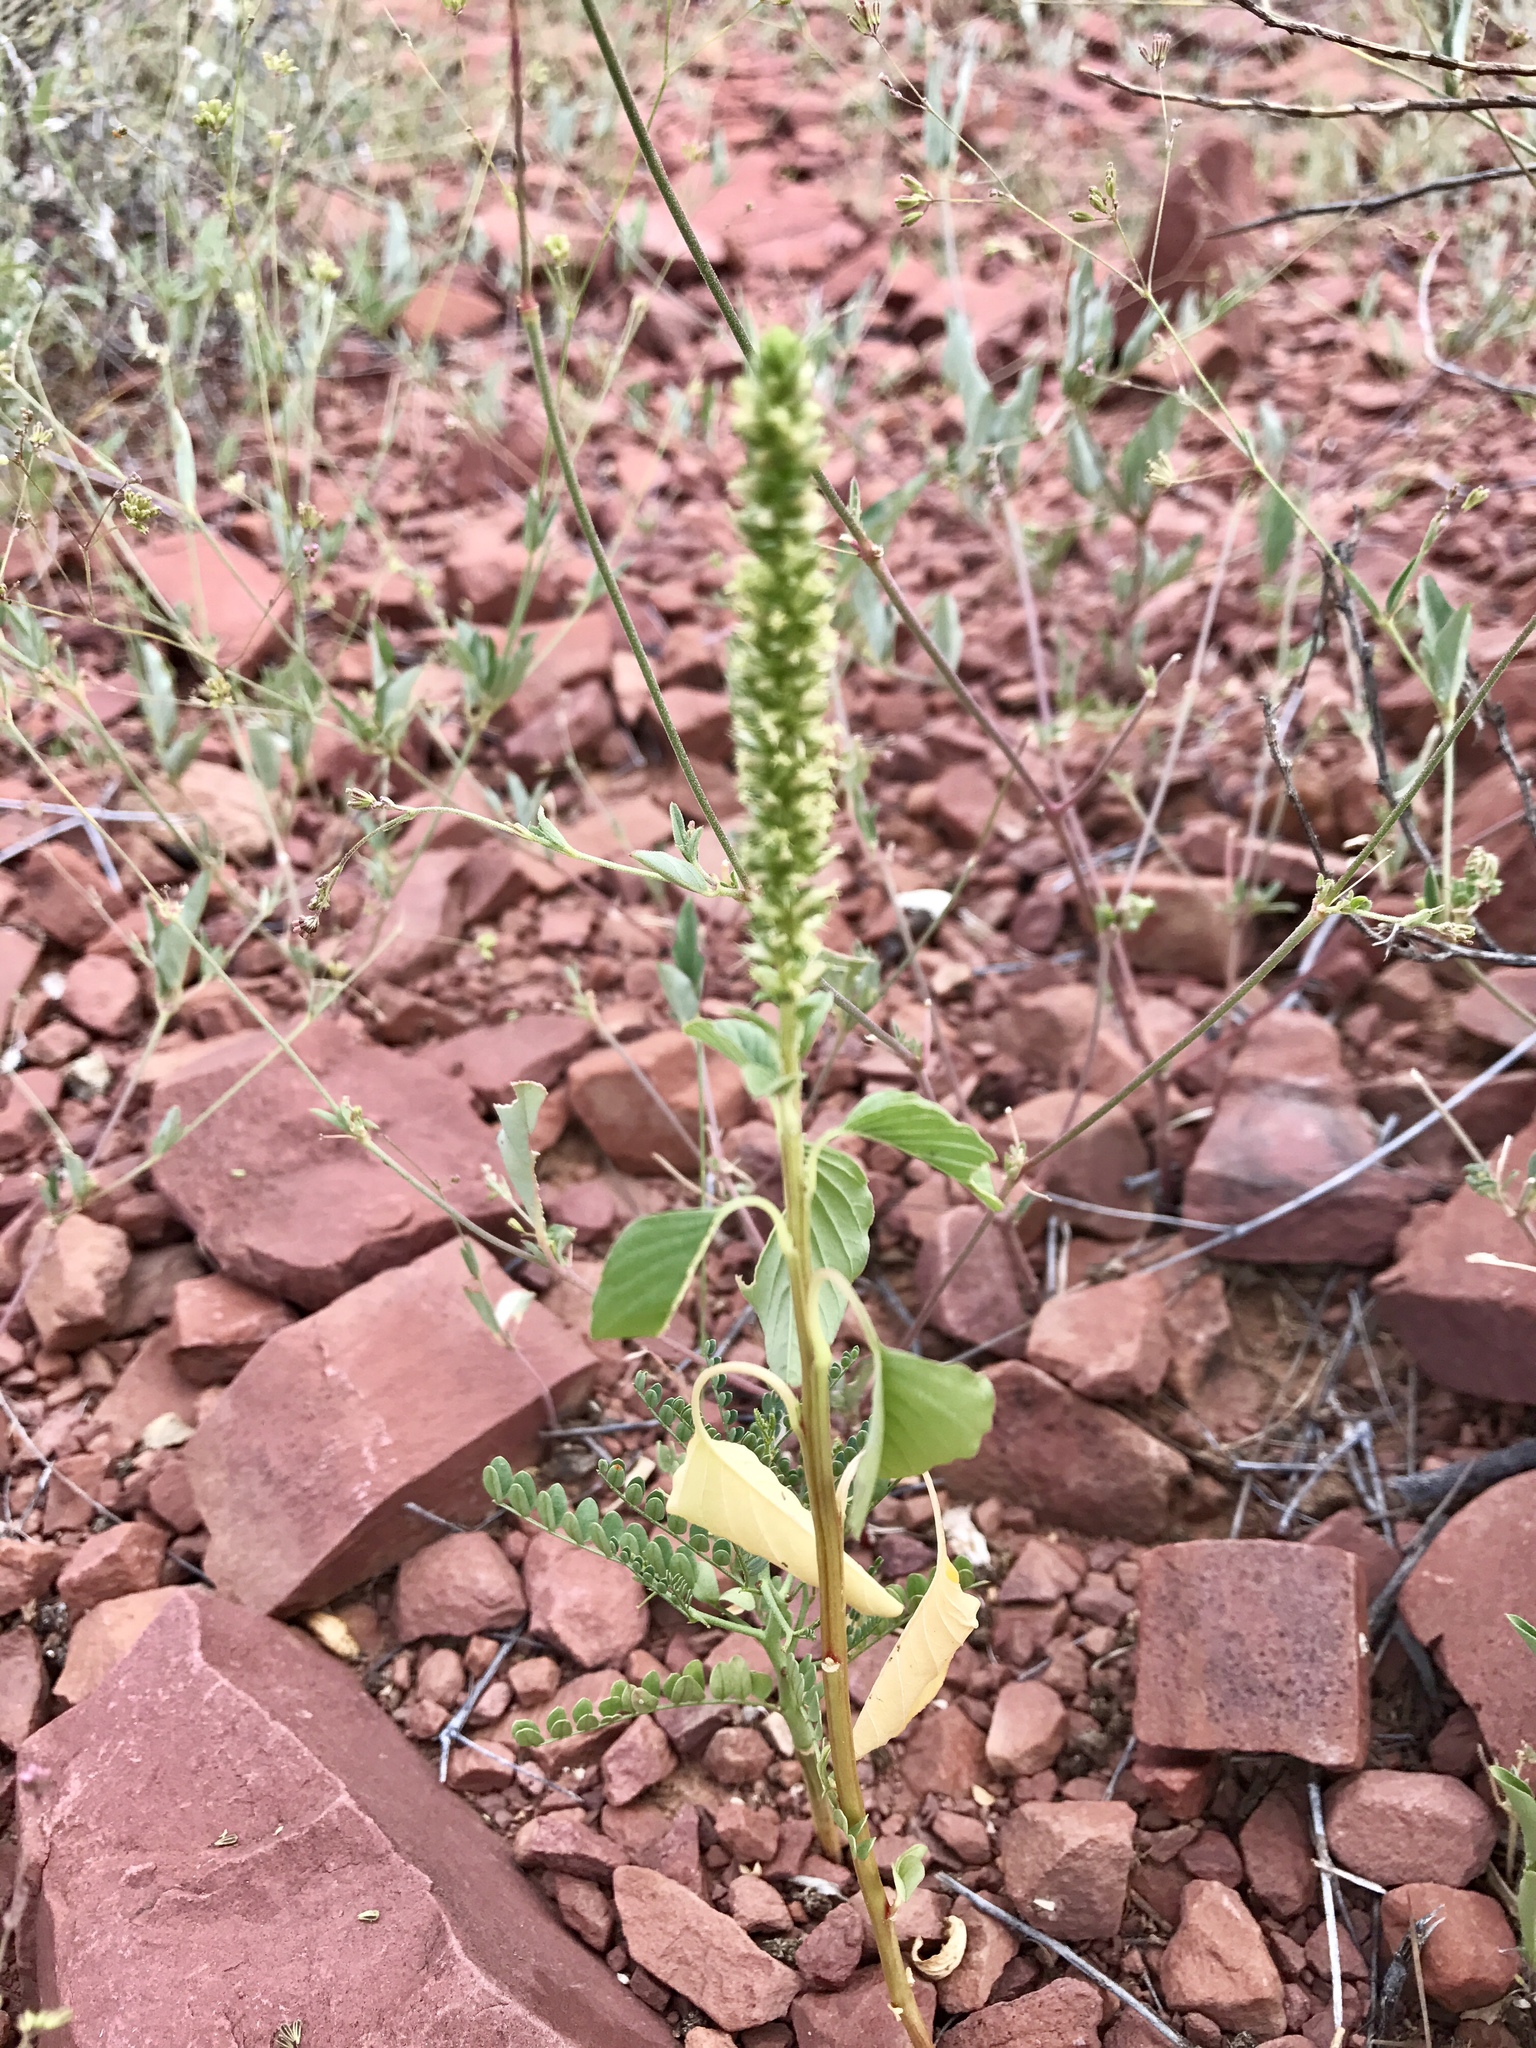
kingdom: Plantae
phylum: Tracheophyta
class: Magnoliopsida
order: Caryophyllales
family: Amaranthaceae
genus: Amaranthus
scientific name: Amaranthus palmeri
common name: Dioecious amaranth
